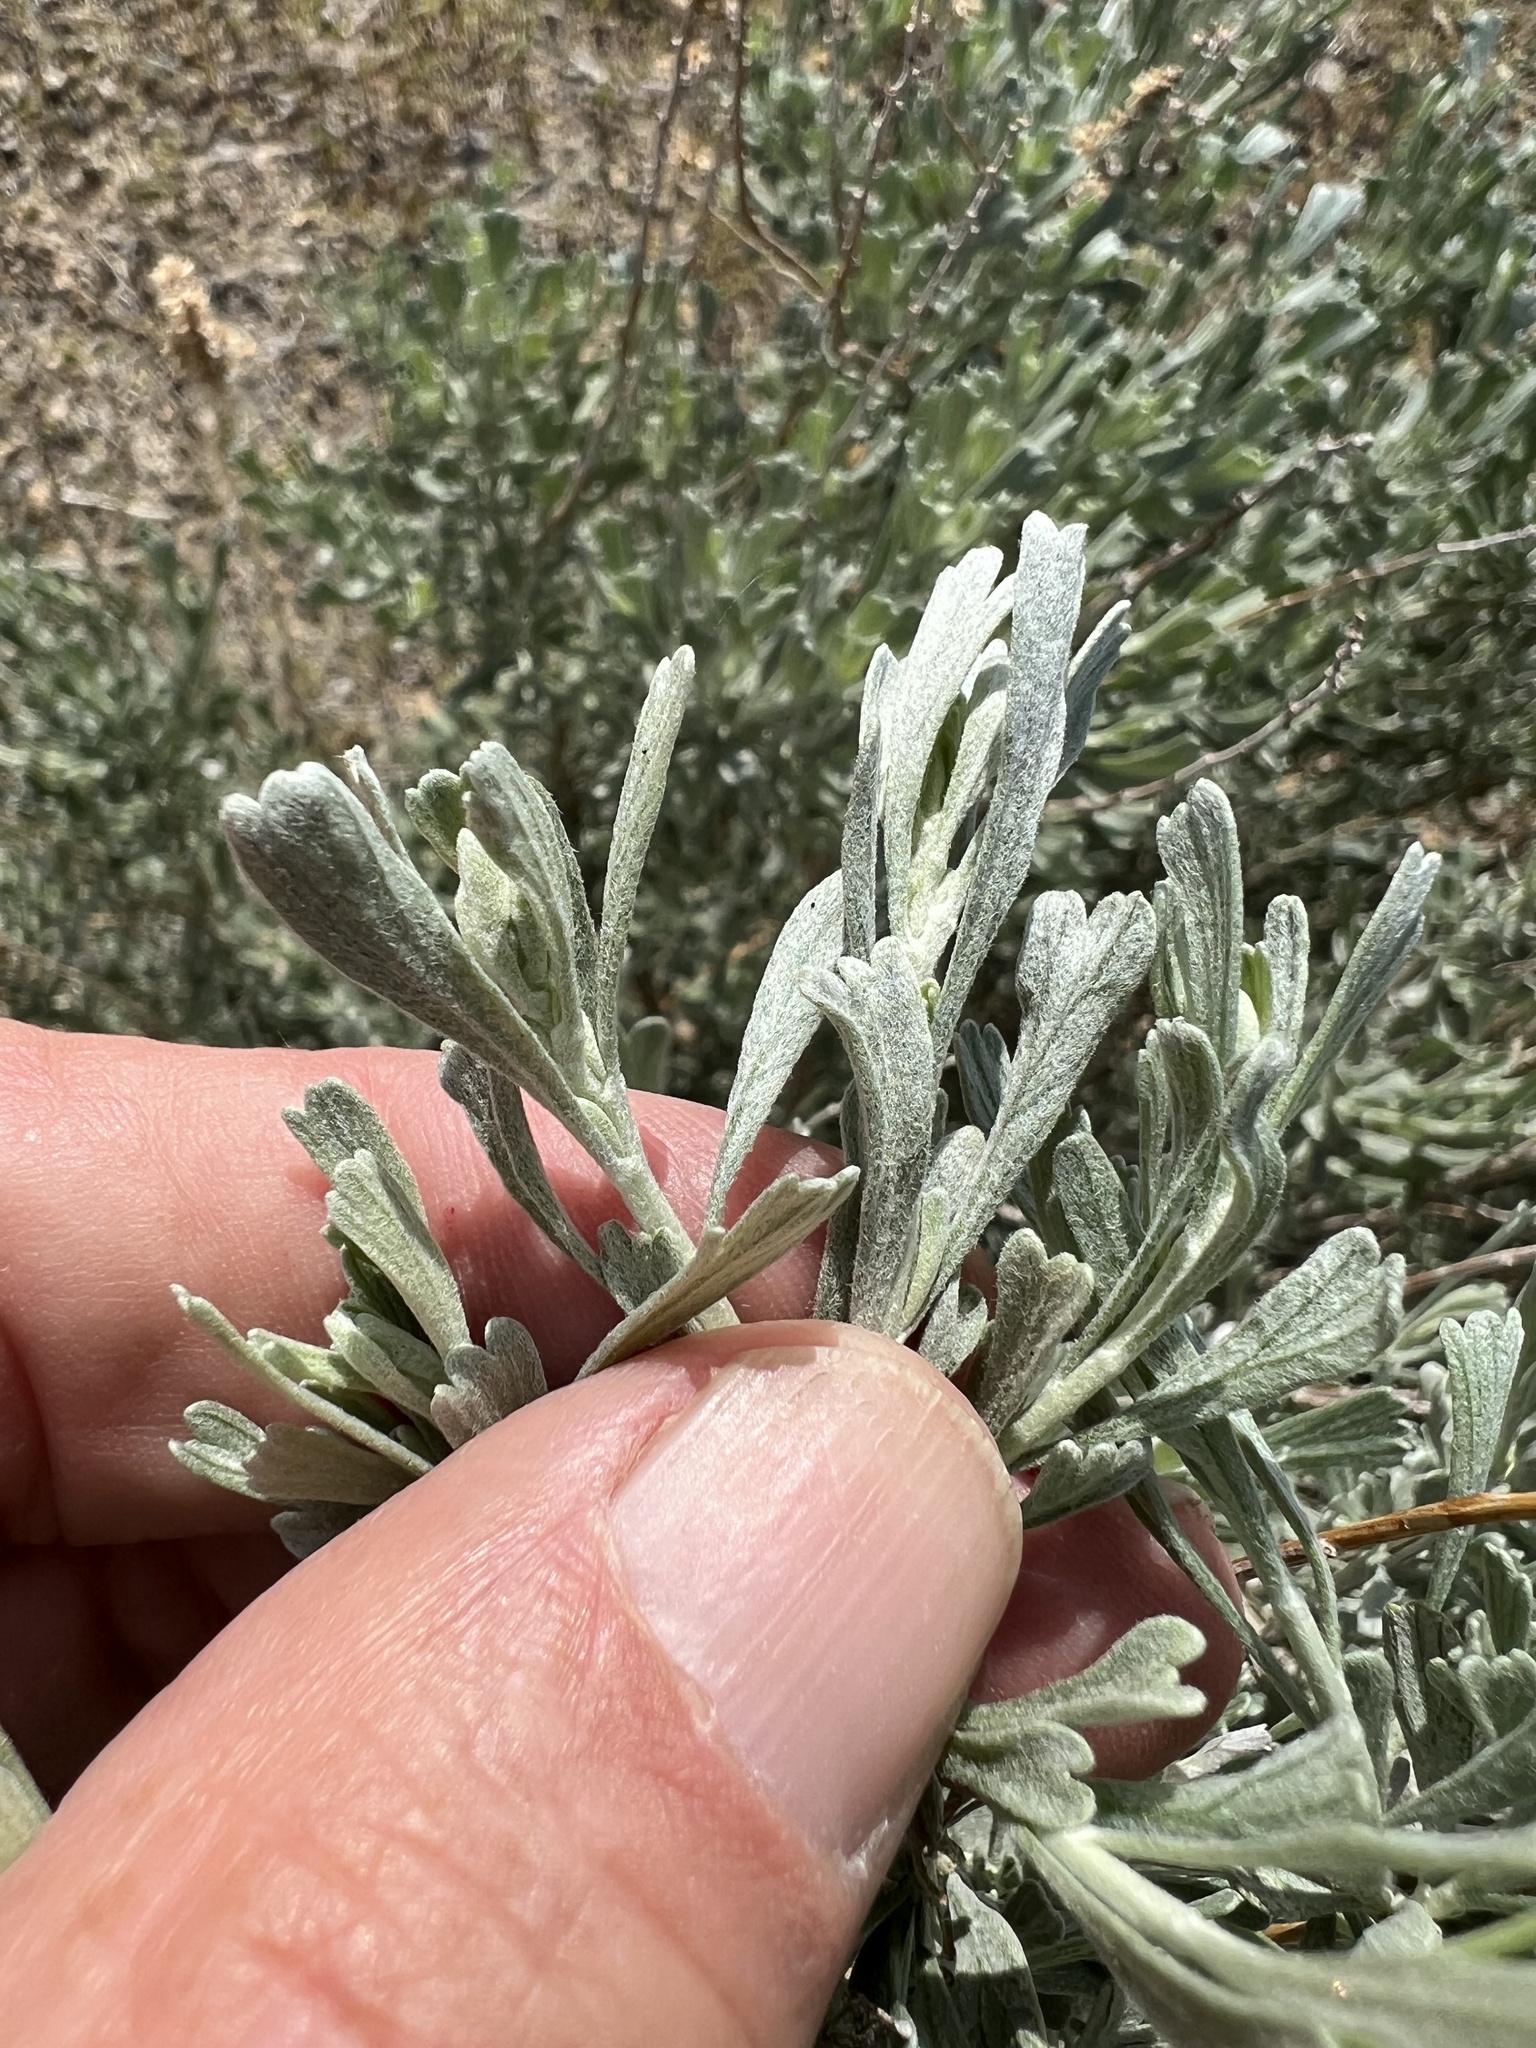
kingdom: Plantae
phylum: Tracheophyta
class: Magnoliopsida
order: Asterales
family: Asteraceae
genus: Artemisia
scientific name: Artemisia tridentata
